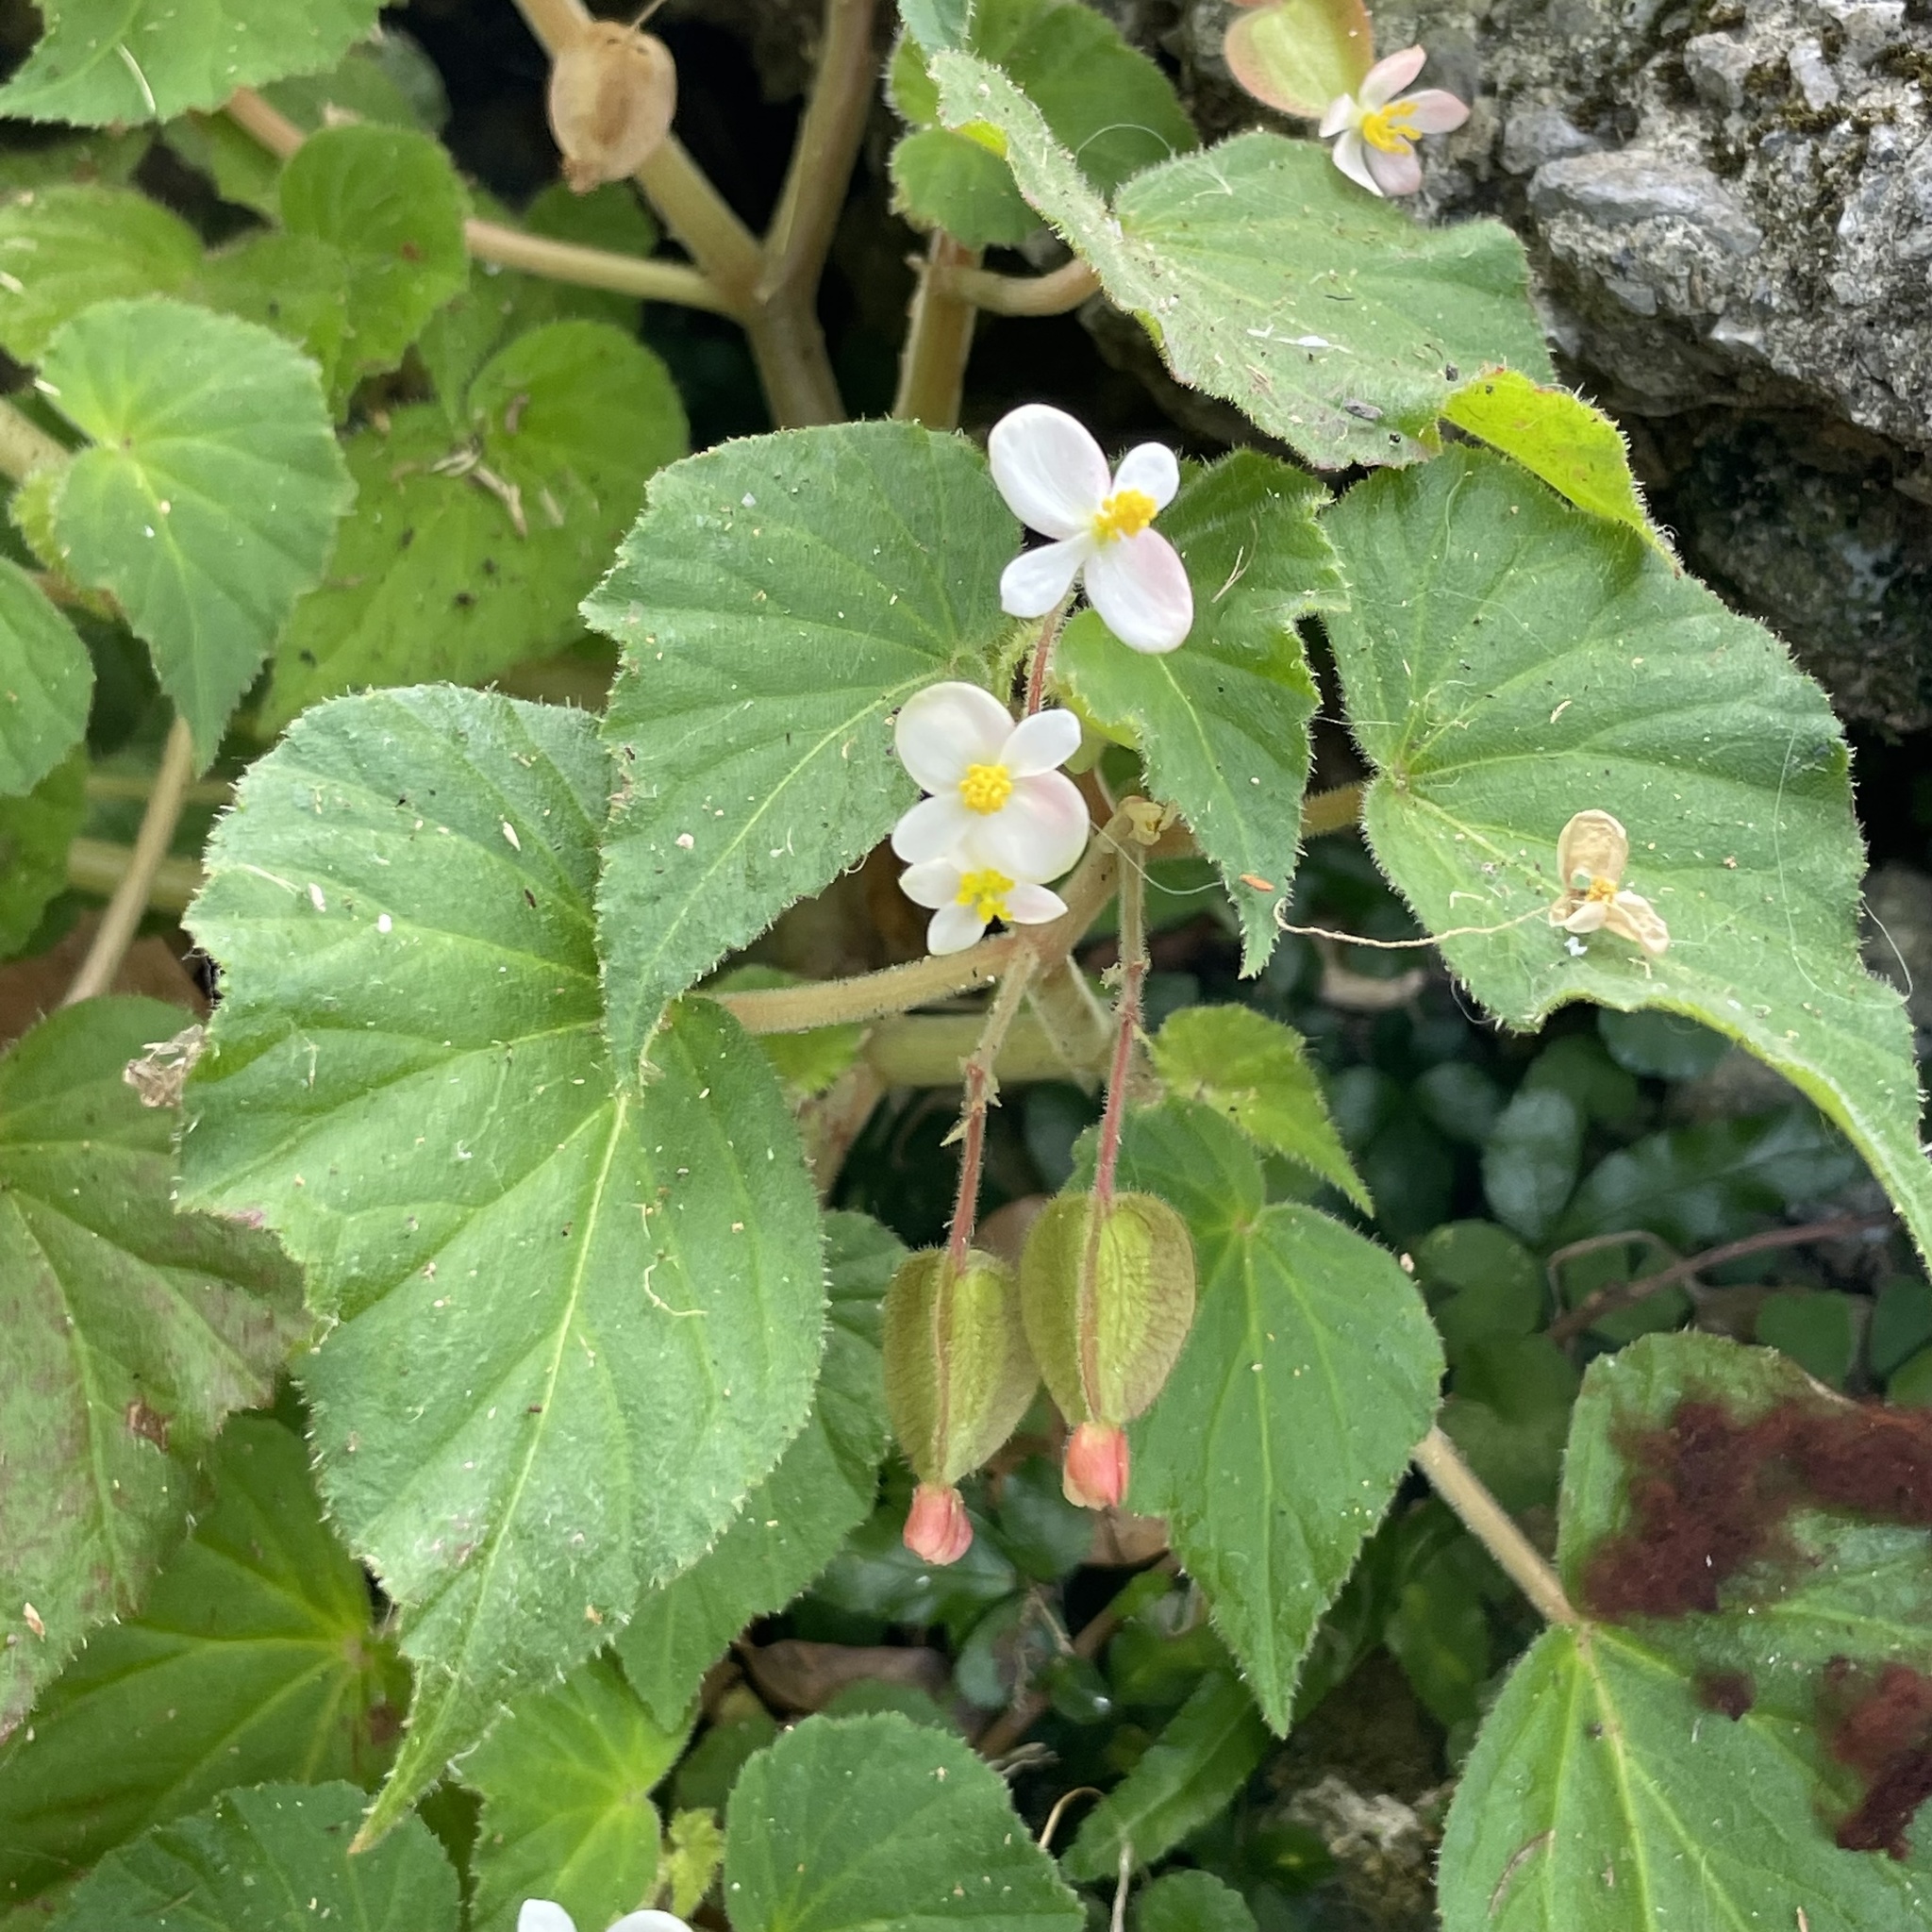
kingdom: Plantae
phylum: Tracheophyta
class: Magnoliopsida
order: Cucurbitales
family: Begoniaceae
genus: Begonia
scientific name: Begonia wallichiana
